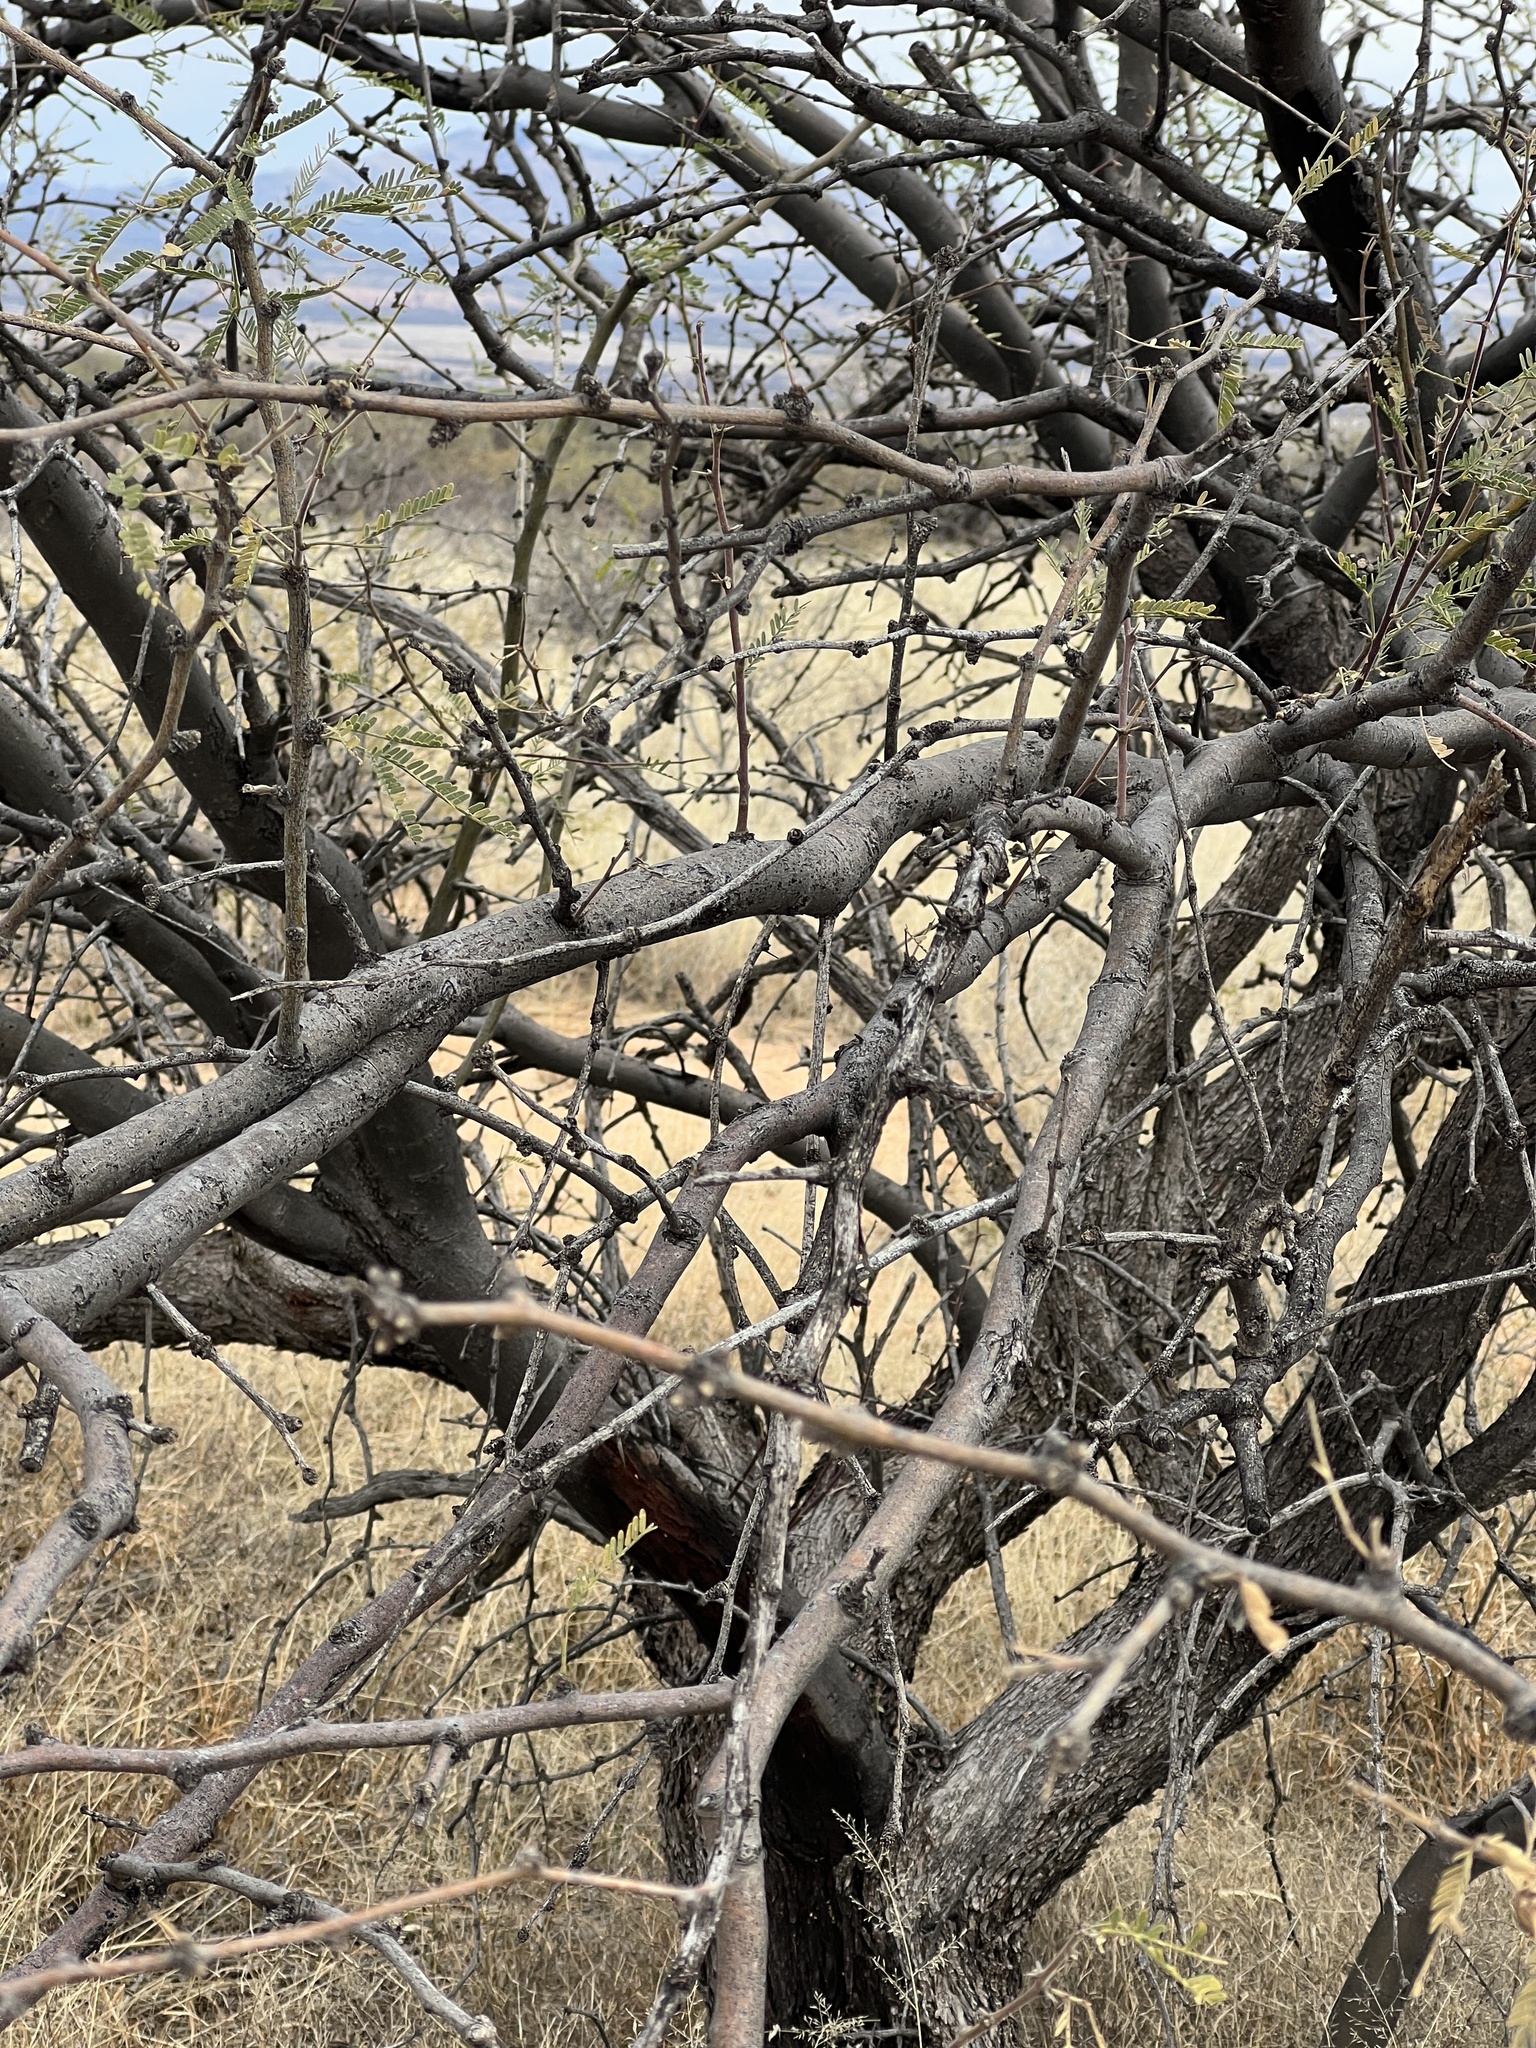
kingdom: Plantae
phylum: Tracheophyta
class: Magnoliopsida
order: Fabales
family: Fabaceae
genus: Prosopis
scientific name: Prosopis velutina
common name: Velvet mesquite
